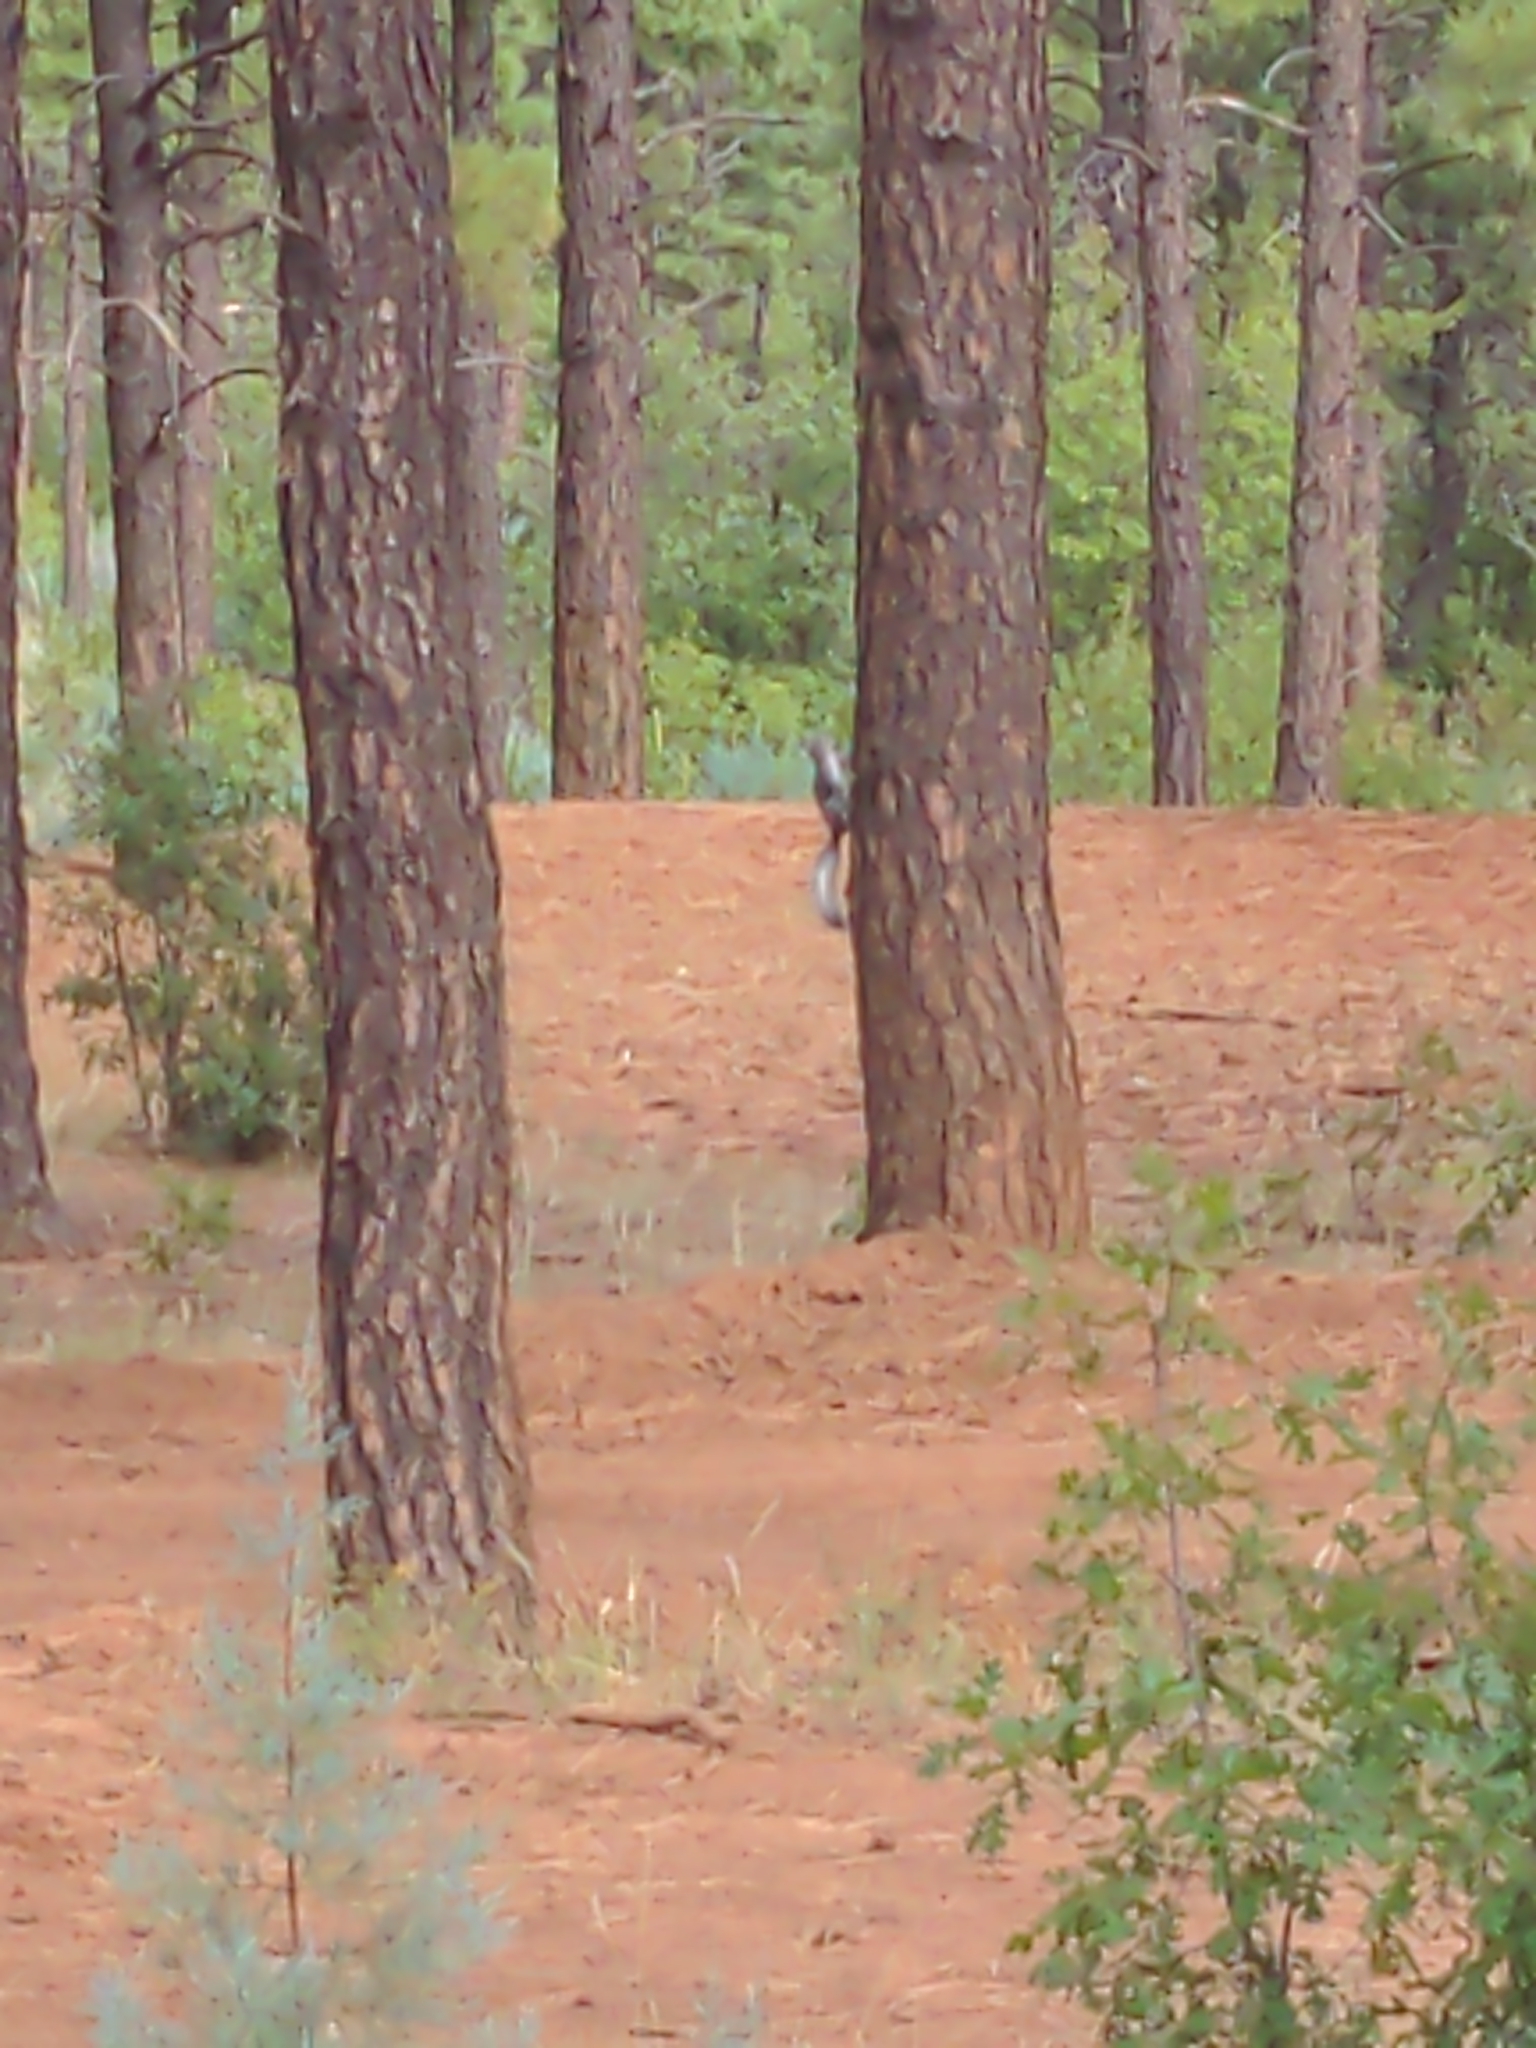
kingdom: Animalia
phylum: Chordata
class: Mammalia
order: Rodentia
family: Sciuridae
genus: Sciurus
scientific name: Sciurus aberti
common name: Abert's squirrel
